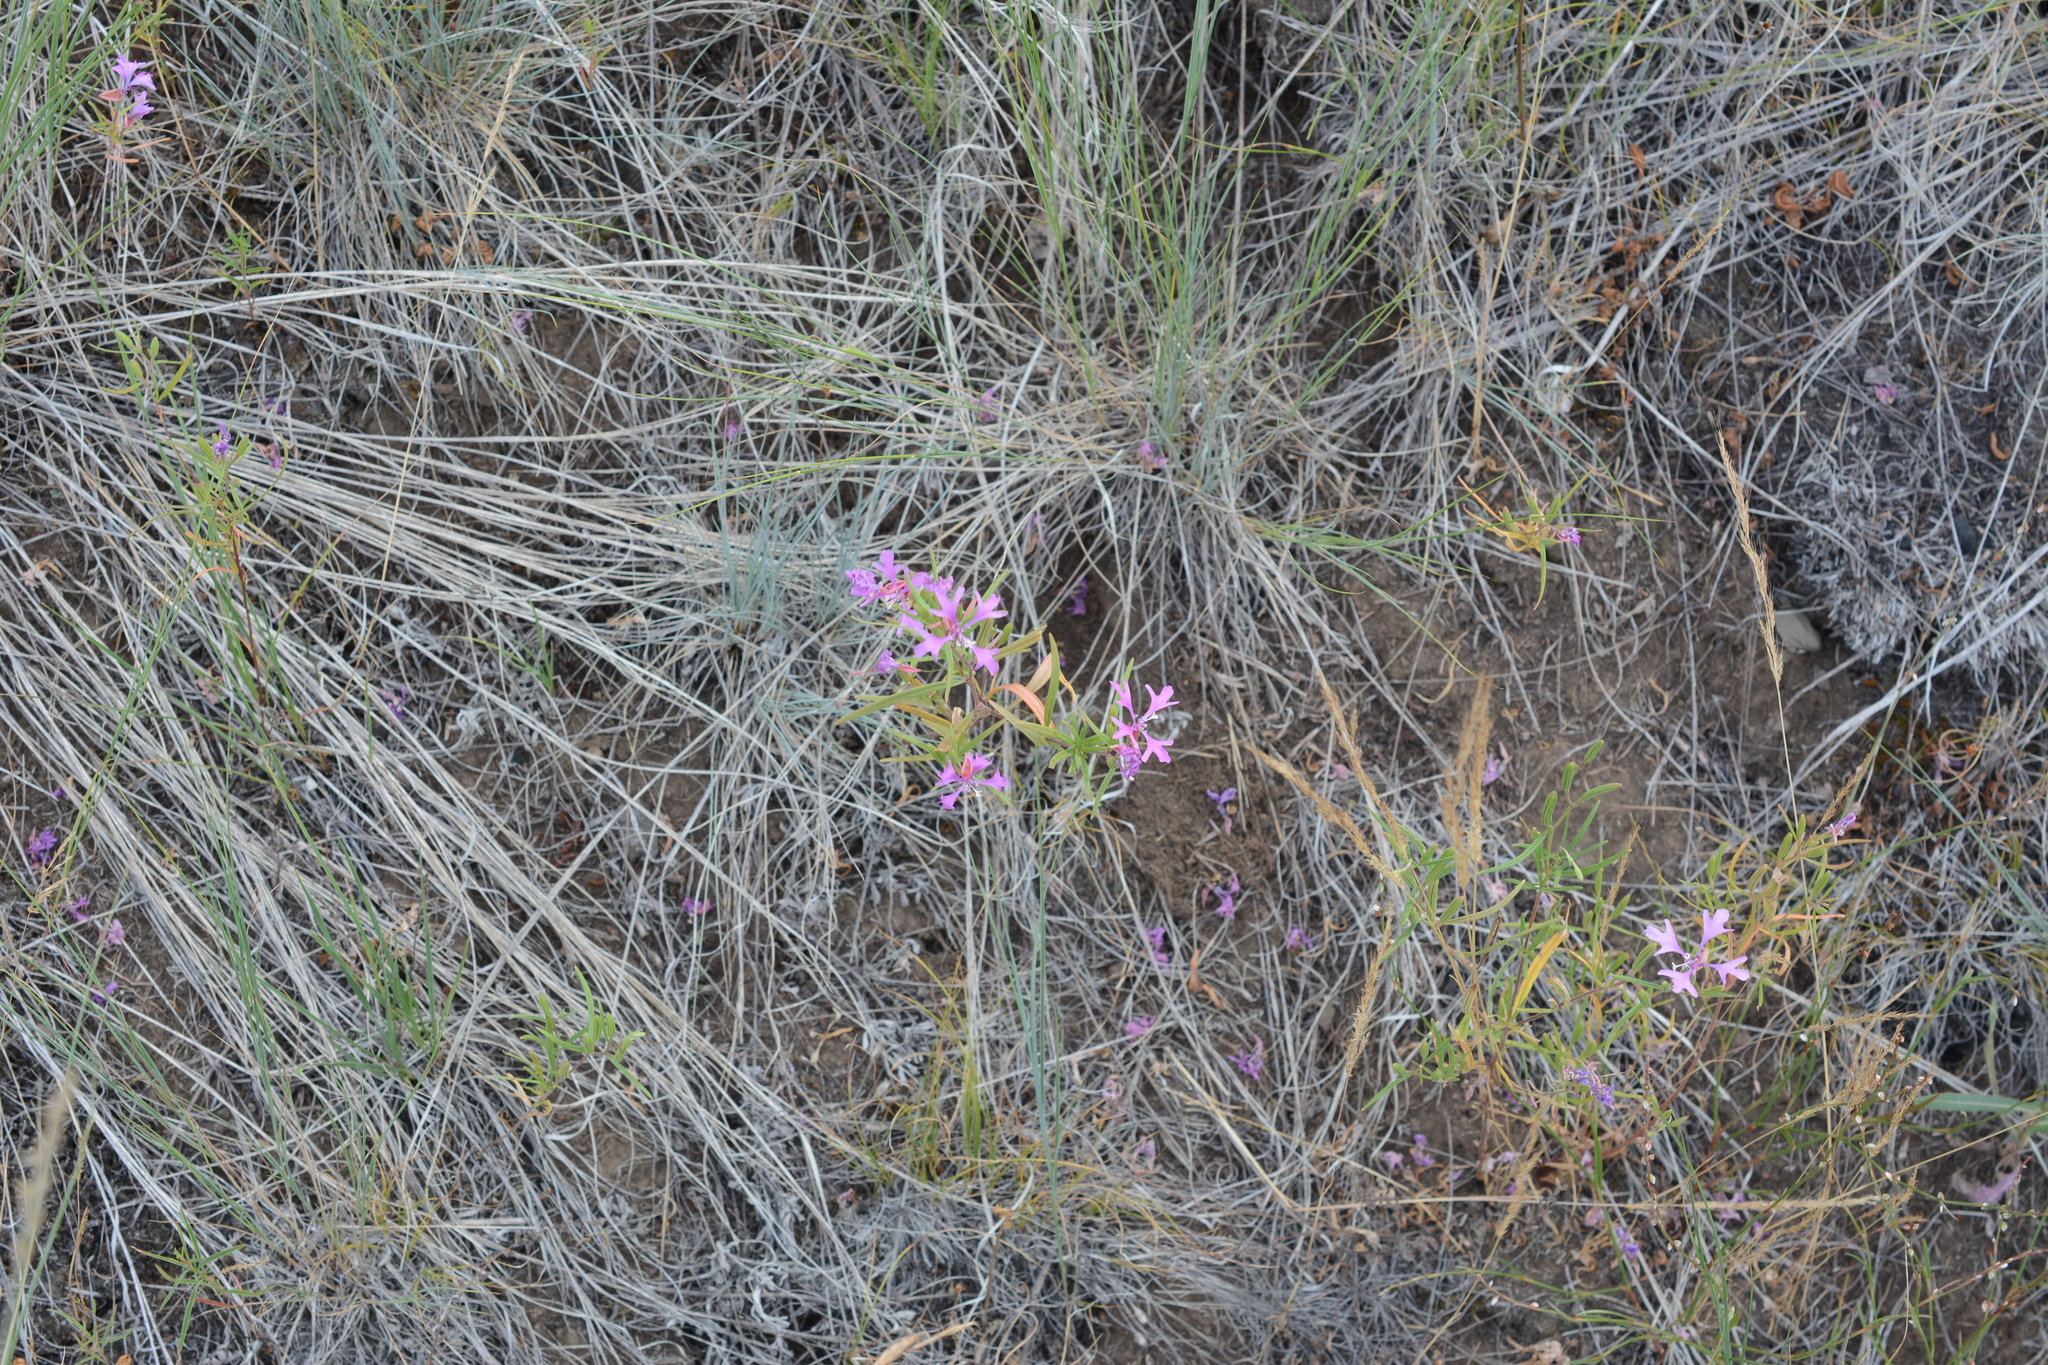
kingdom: Plantae
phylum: Tracheophyta
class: Magnoliopsida
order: Myrtales
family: Onagraceae
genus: Clarkia
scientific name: Clarkia pulchella
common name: Deer horn
